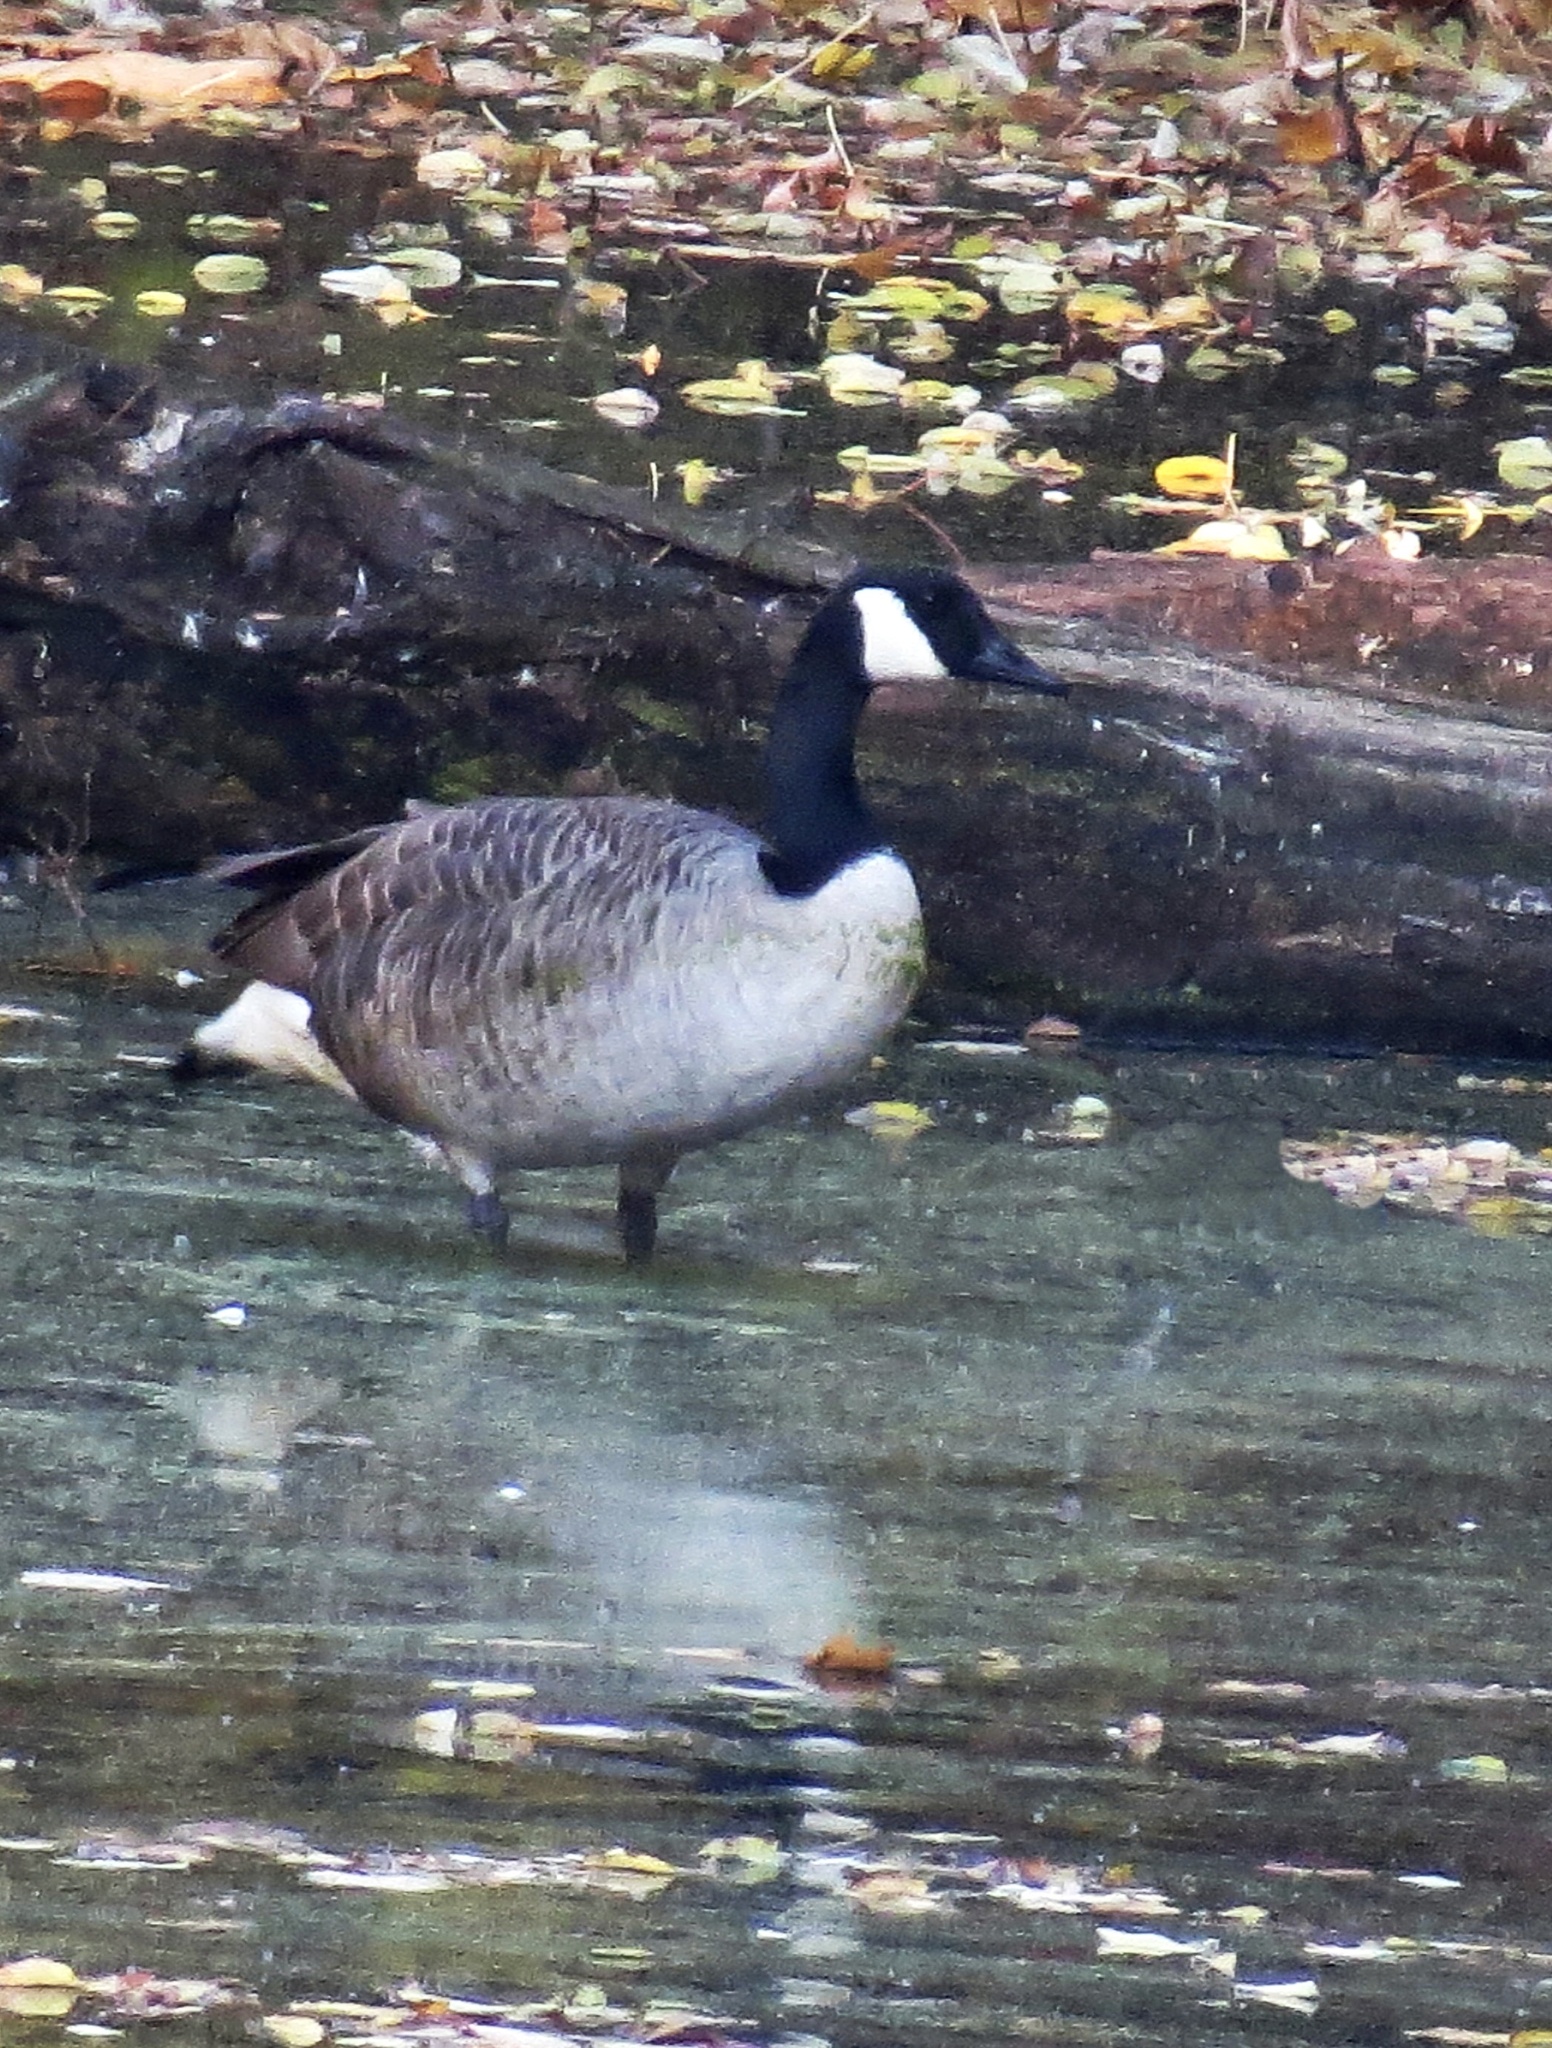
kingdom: Animalia
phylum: Chordata
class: Aves
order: Anseriformes
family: Anatidae
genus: Branta
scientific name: Branta canadensis
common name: Canada goose
